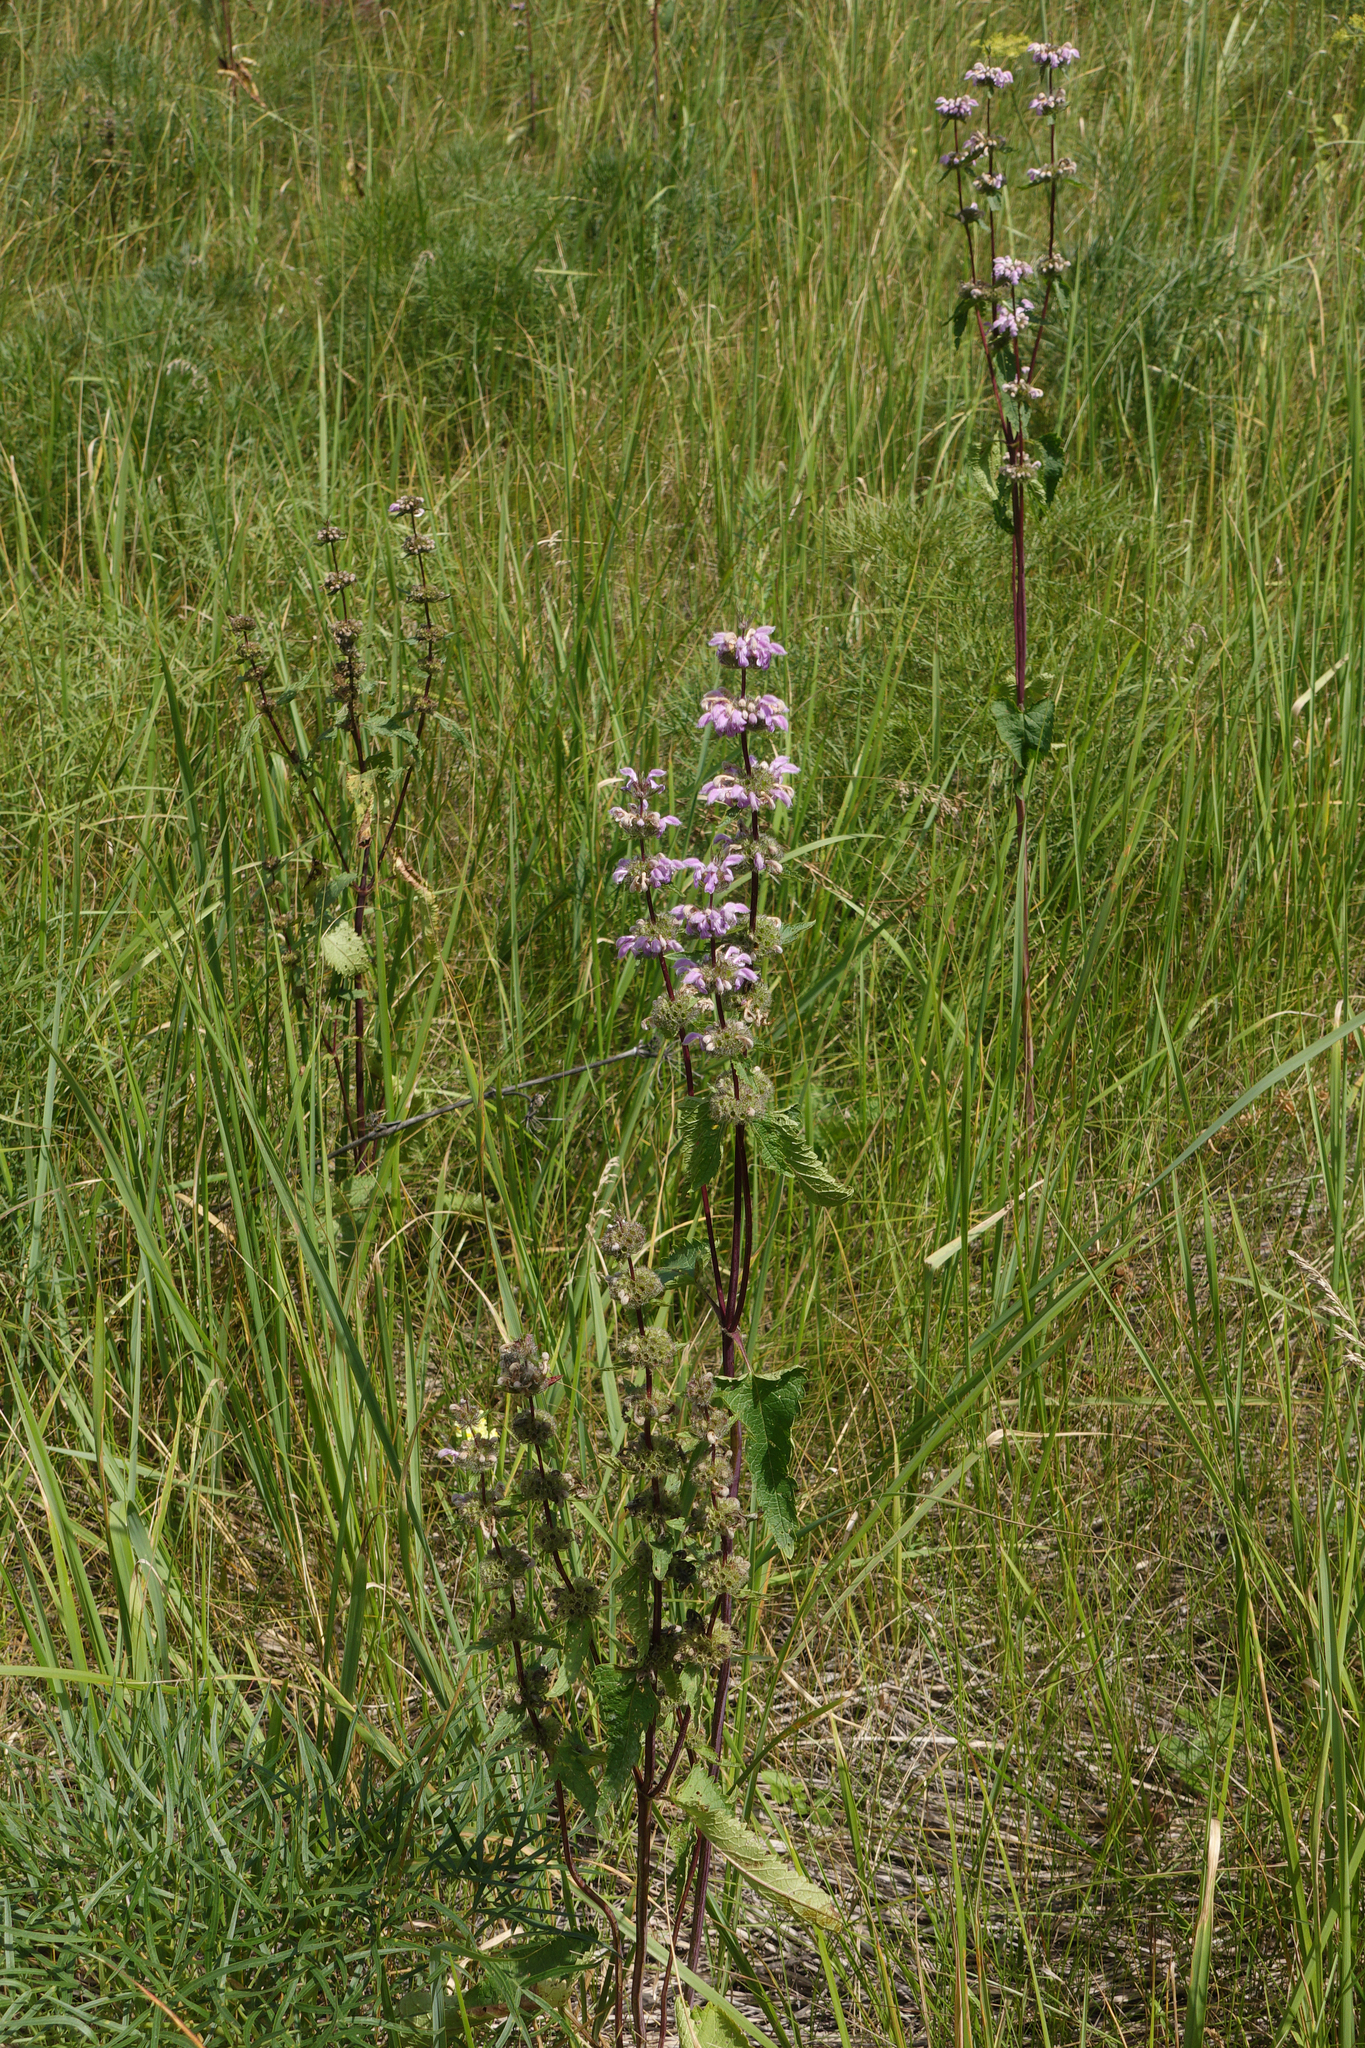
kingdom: Plantae
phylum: Tracheophyta
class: Magnoliopsida
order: Lamiales
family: Lamiaceae
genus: Phlomoides
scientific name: Phlomoides tuberosa
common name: Tuberous jerusalem sage
